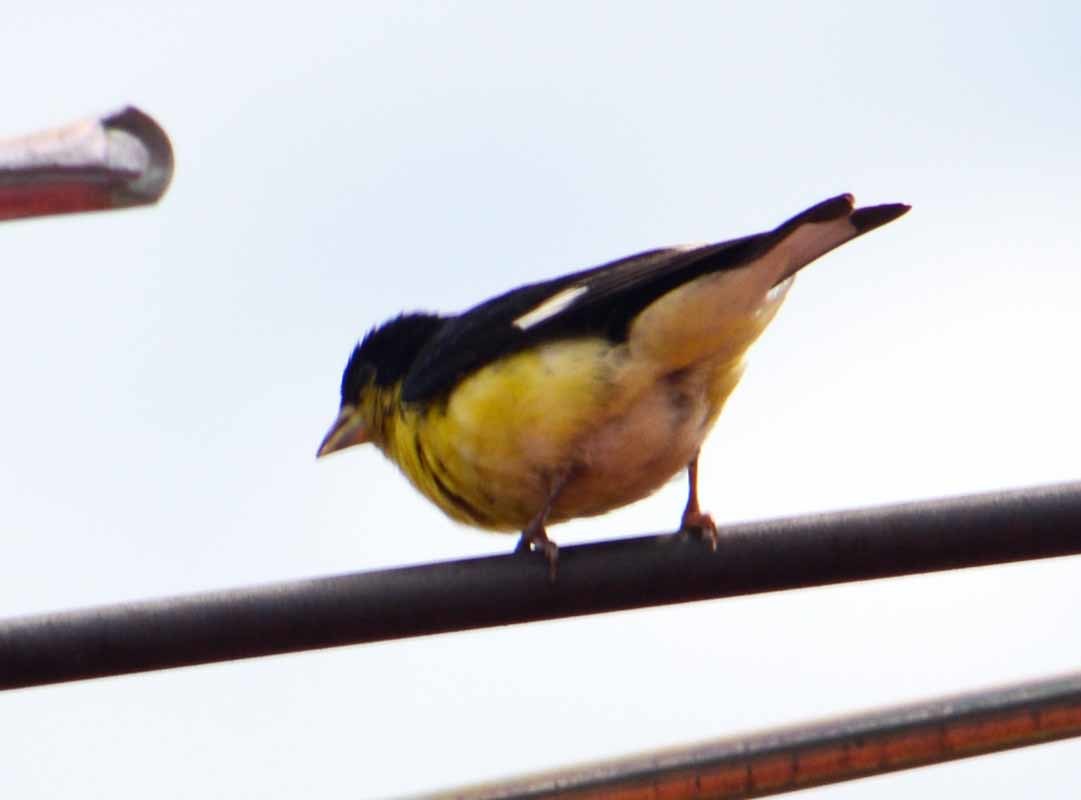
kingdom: Animalia
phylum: Chordata
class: Aves
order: Passeriformes
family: Fringillidae
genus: Spinus
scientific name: Spinus psaltria
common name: Lesser goldfinch
